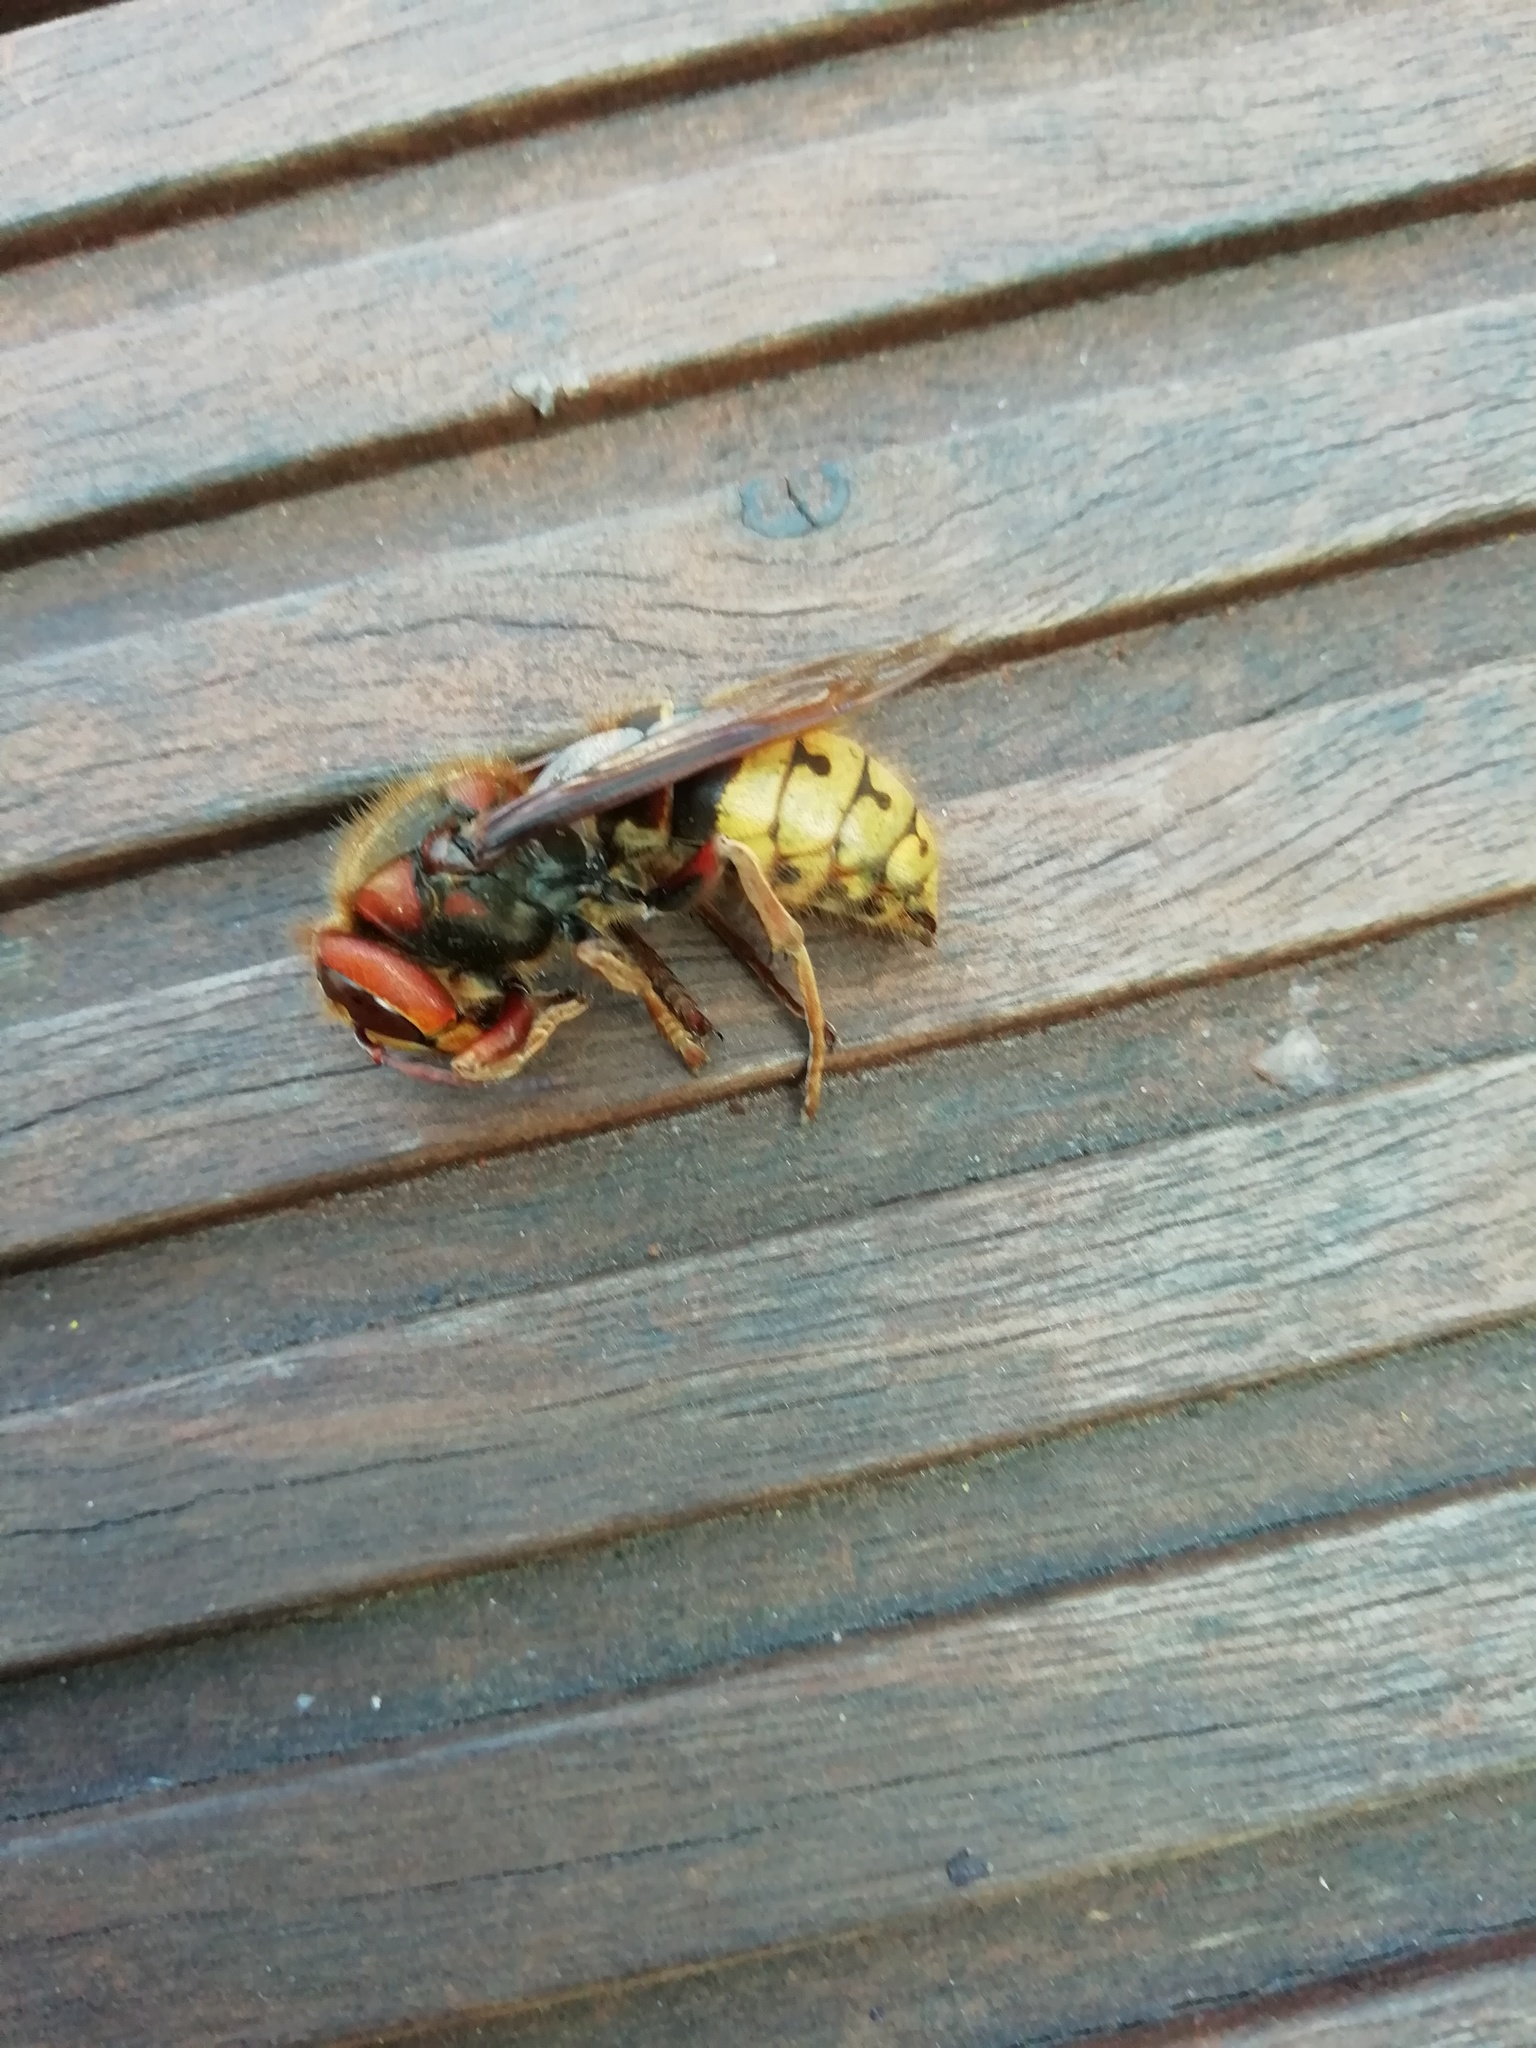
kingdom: Animalia
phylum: Arthropoda
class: Insecta
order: Hymenoptera
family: Vespidae
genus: Vespa
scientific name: Vespa crabro
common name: Hornet
